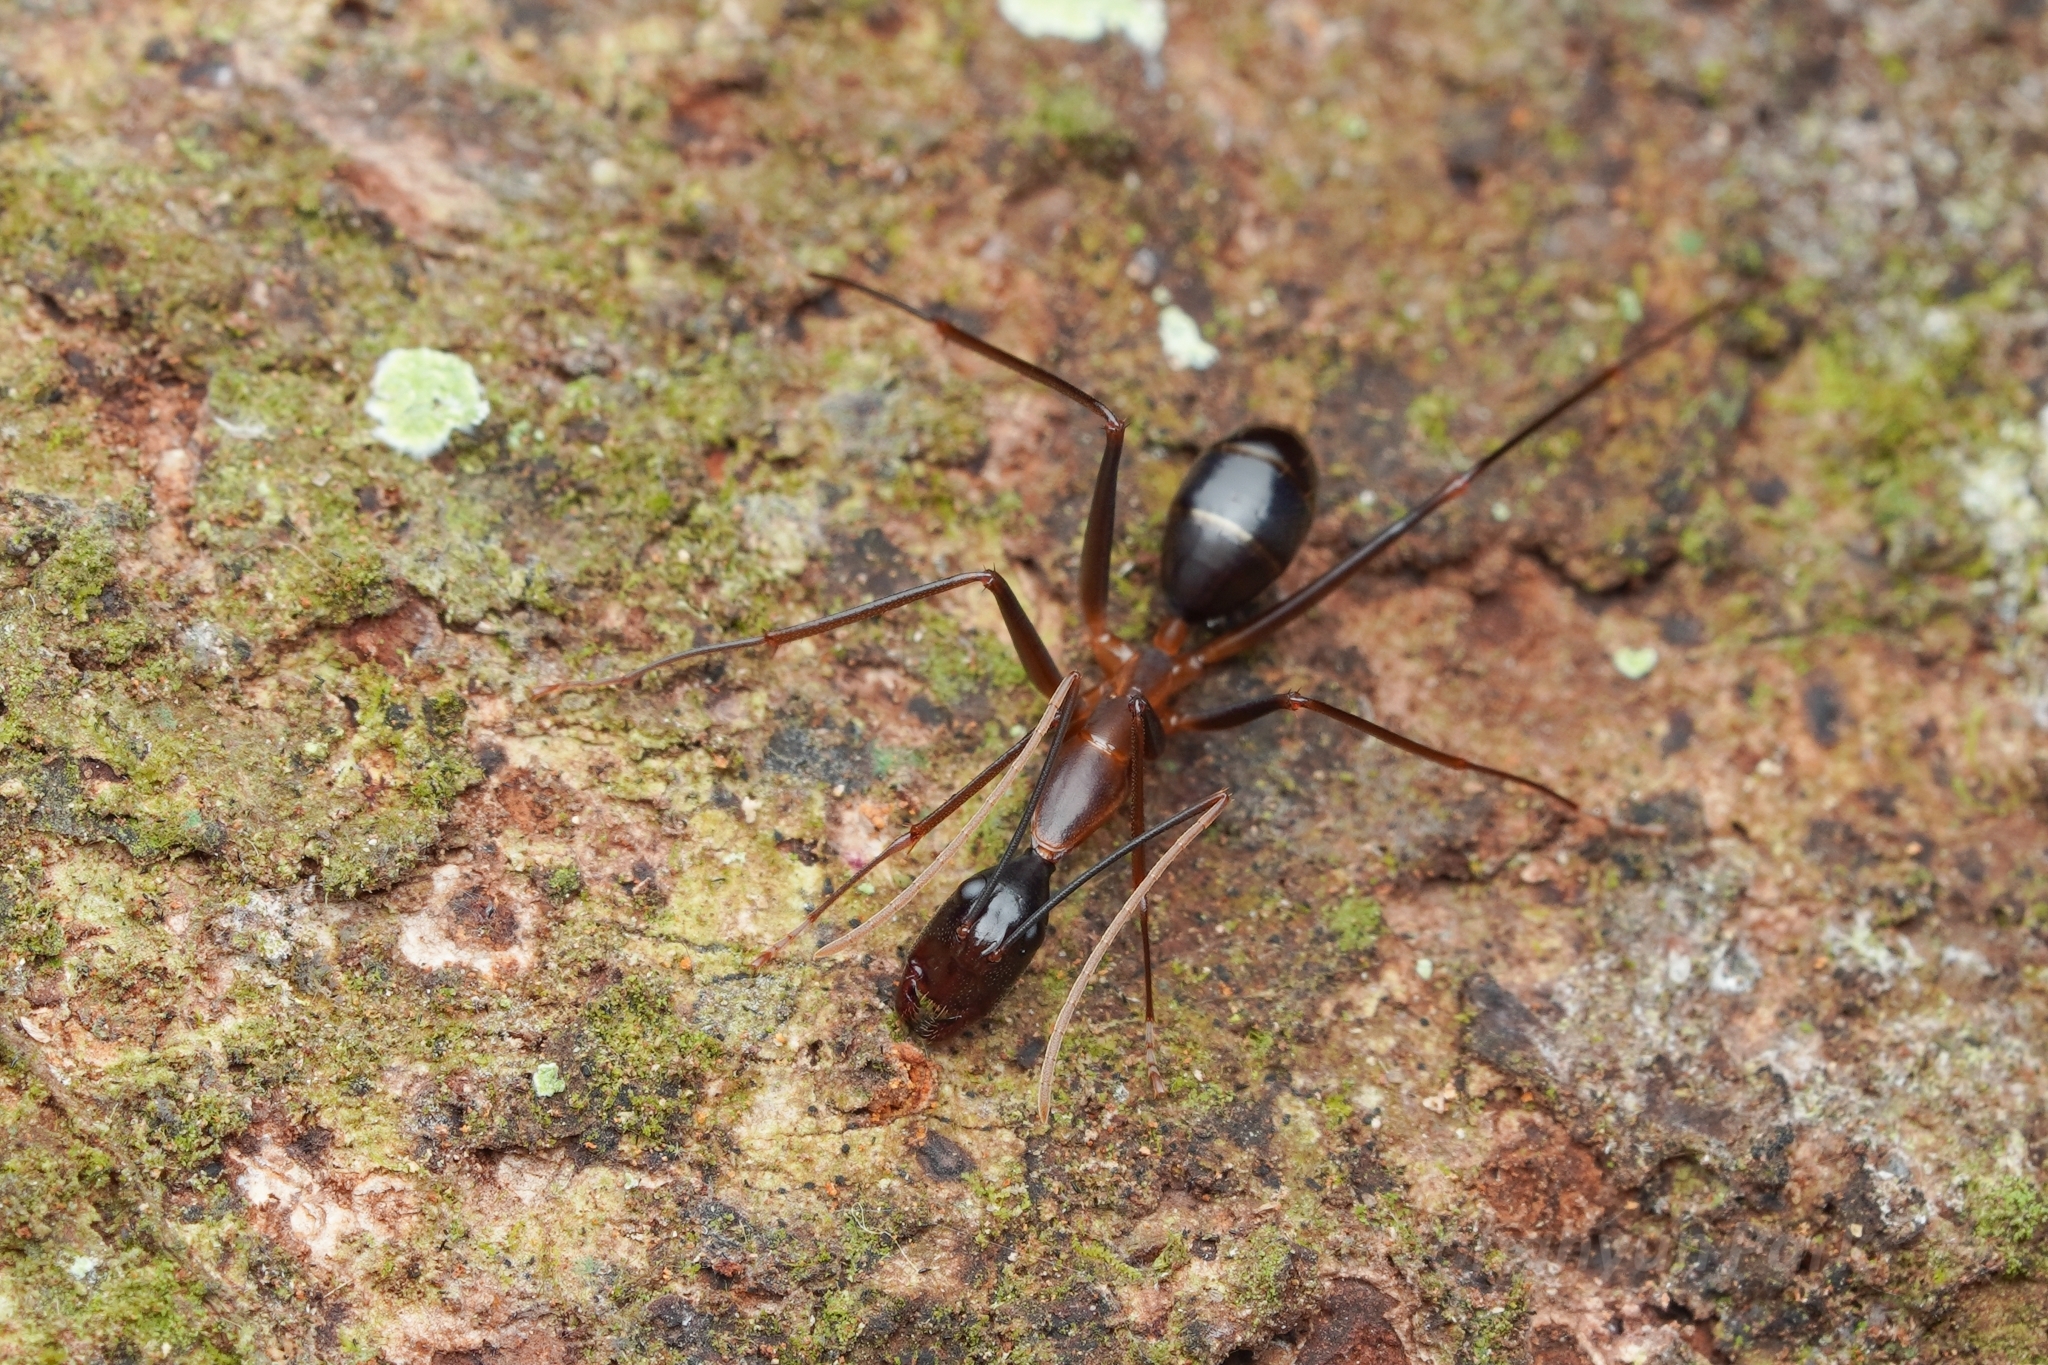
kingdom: Animalia
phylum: Arthropoda
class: Insecta
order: Hymenoptera
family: Formicidae
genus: Camponotus
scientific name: Camponotus festinus
